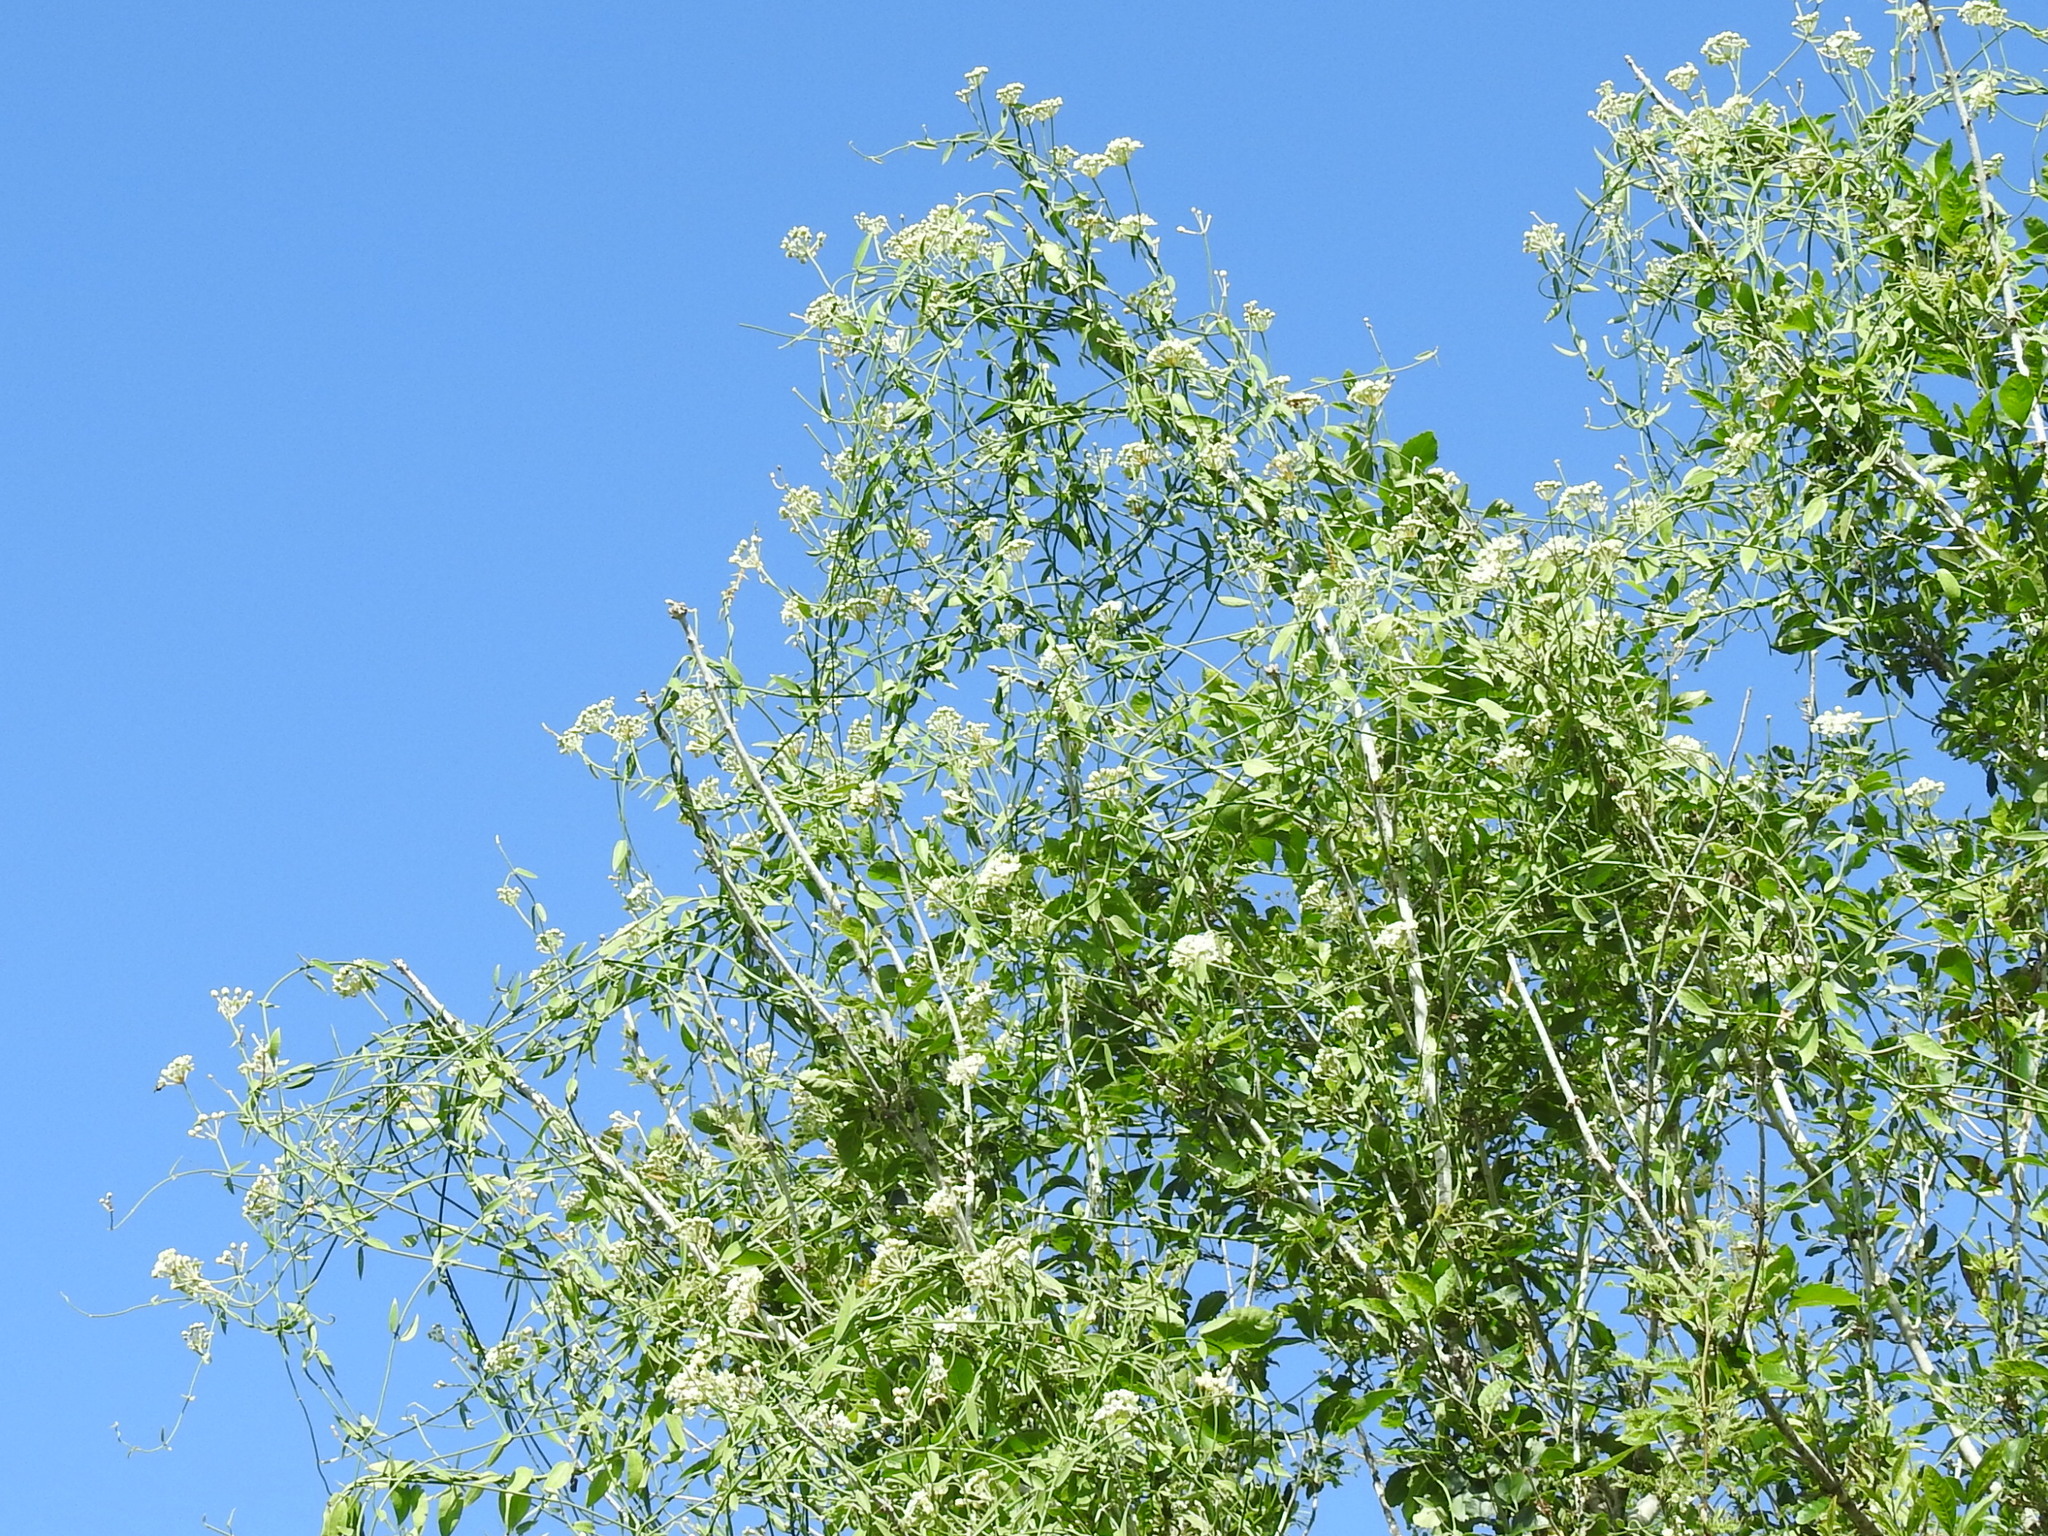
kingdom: Plantae
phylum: Tracheophyta
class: Magnoliopsida
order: Gentianales
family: Apocynaceae
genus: Funastrum
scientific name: Funastrum clausum
